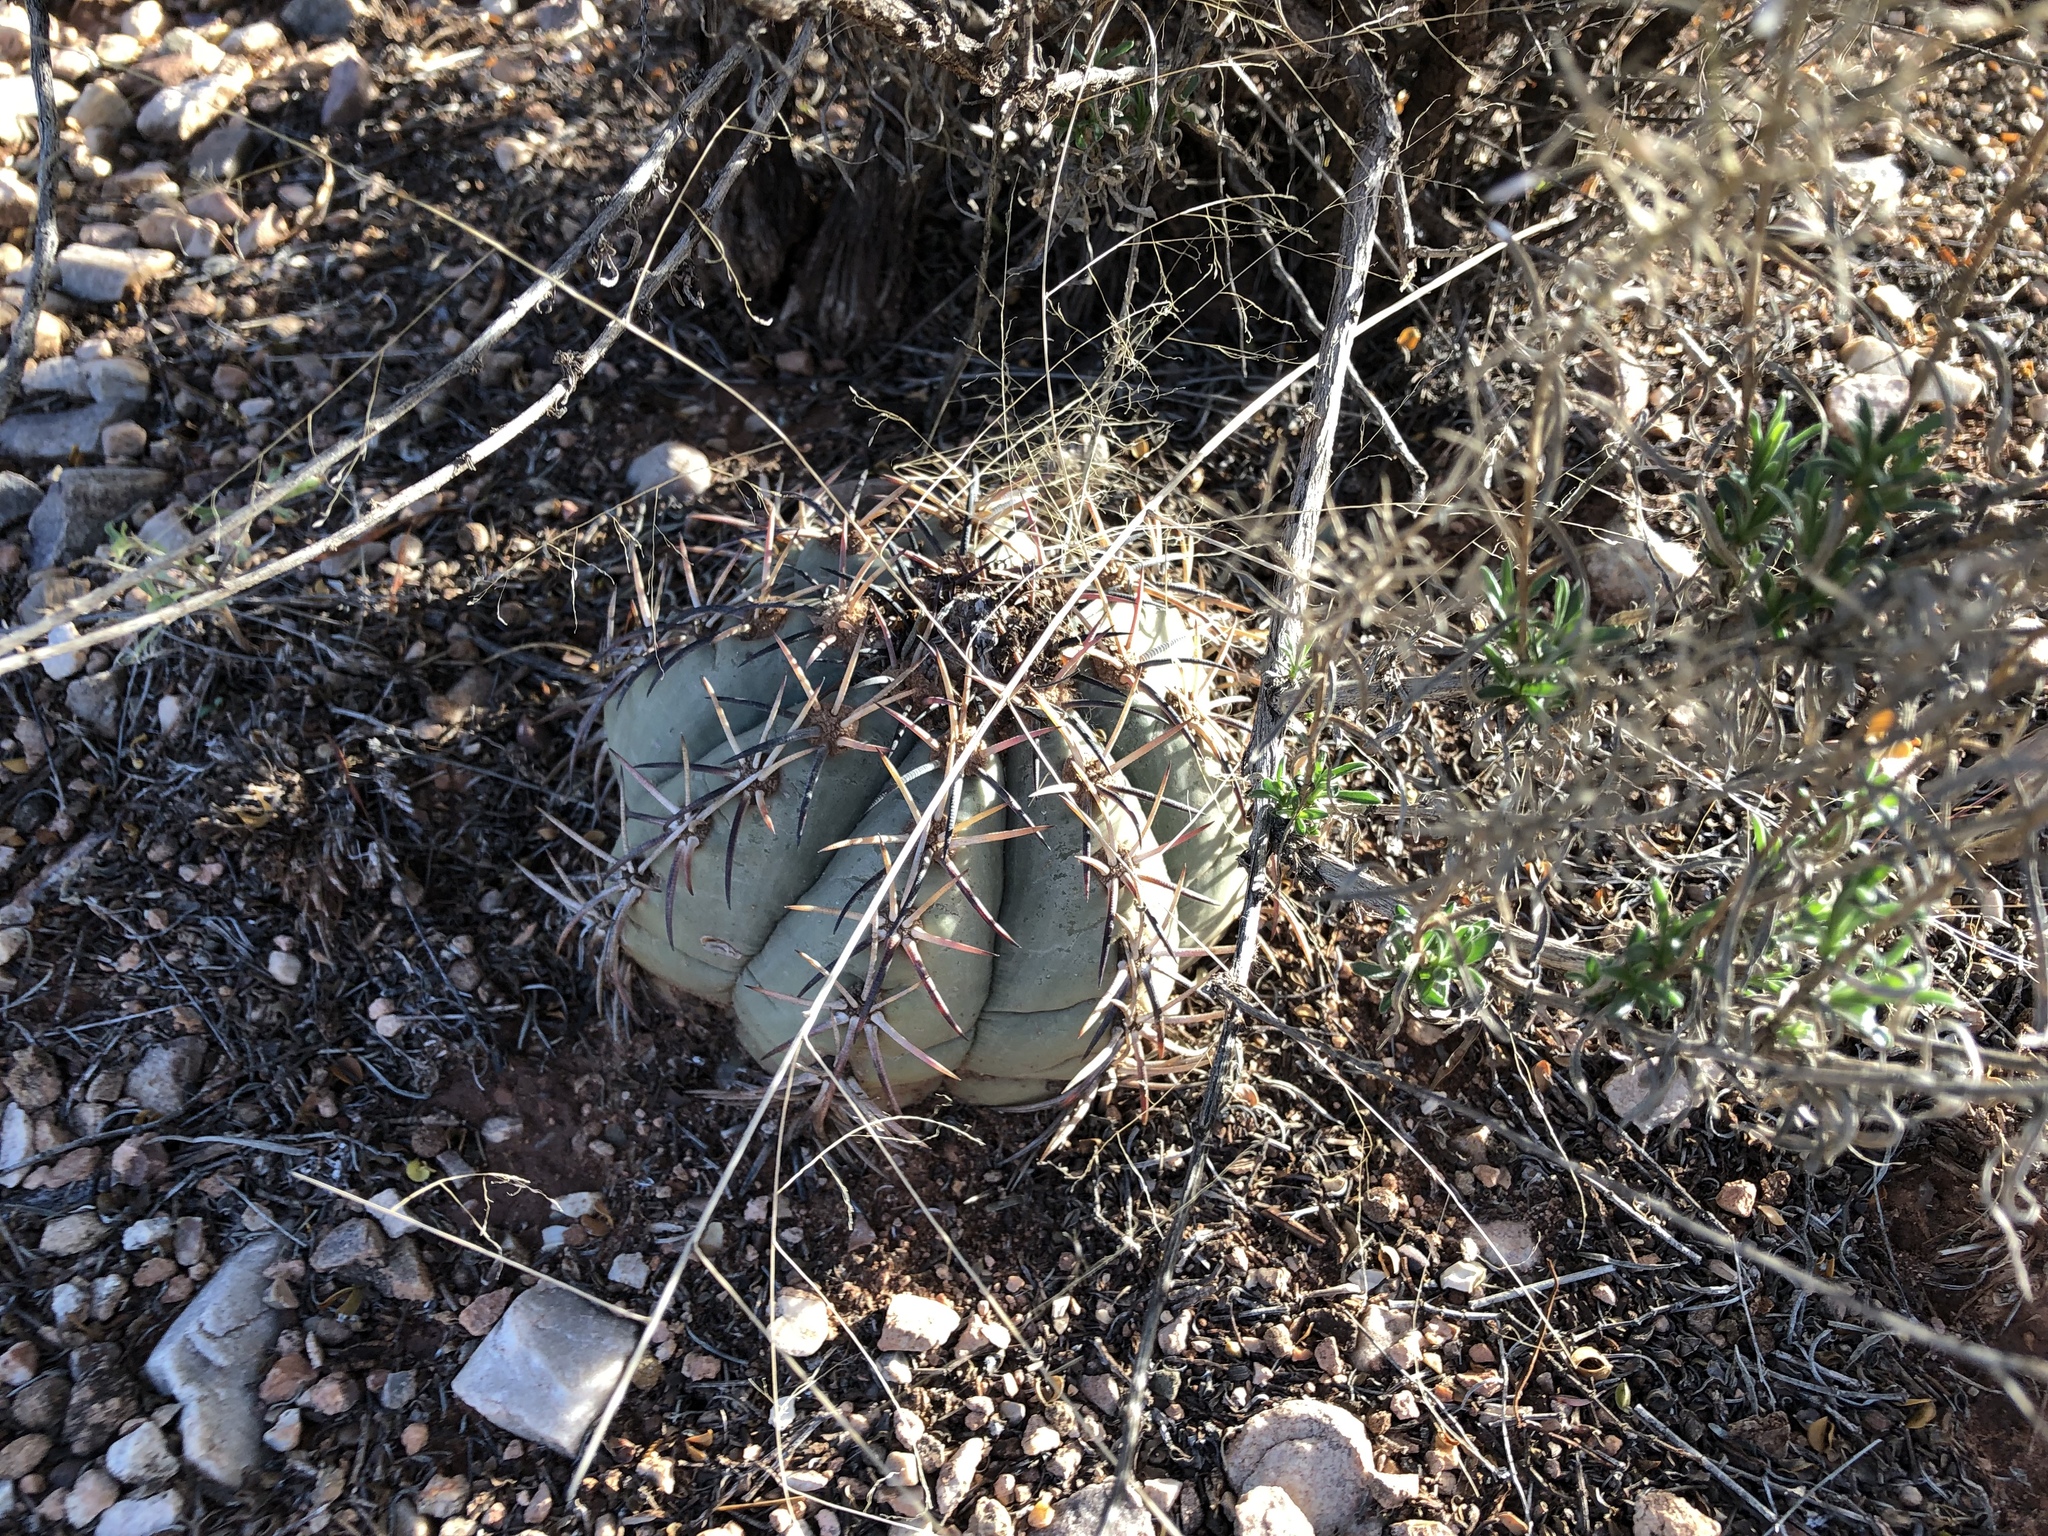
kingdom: Plantae
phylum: Tracheophyta
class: Magnoliopsida
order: Caryophyllales
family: Cactaceae
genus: Echinocactus
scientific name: Echinocactus horizonthalonius
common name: Devilshead
